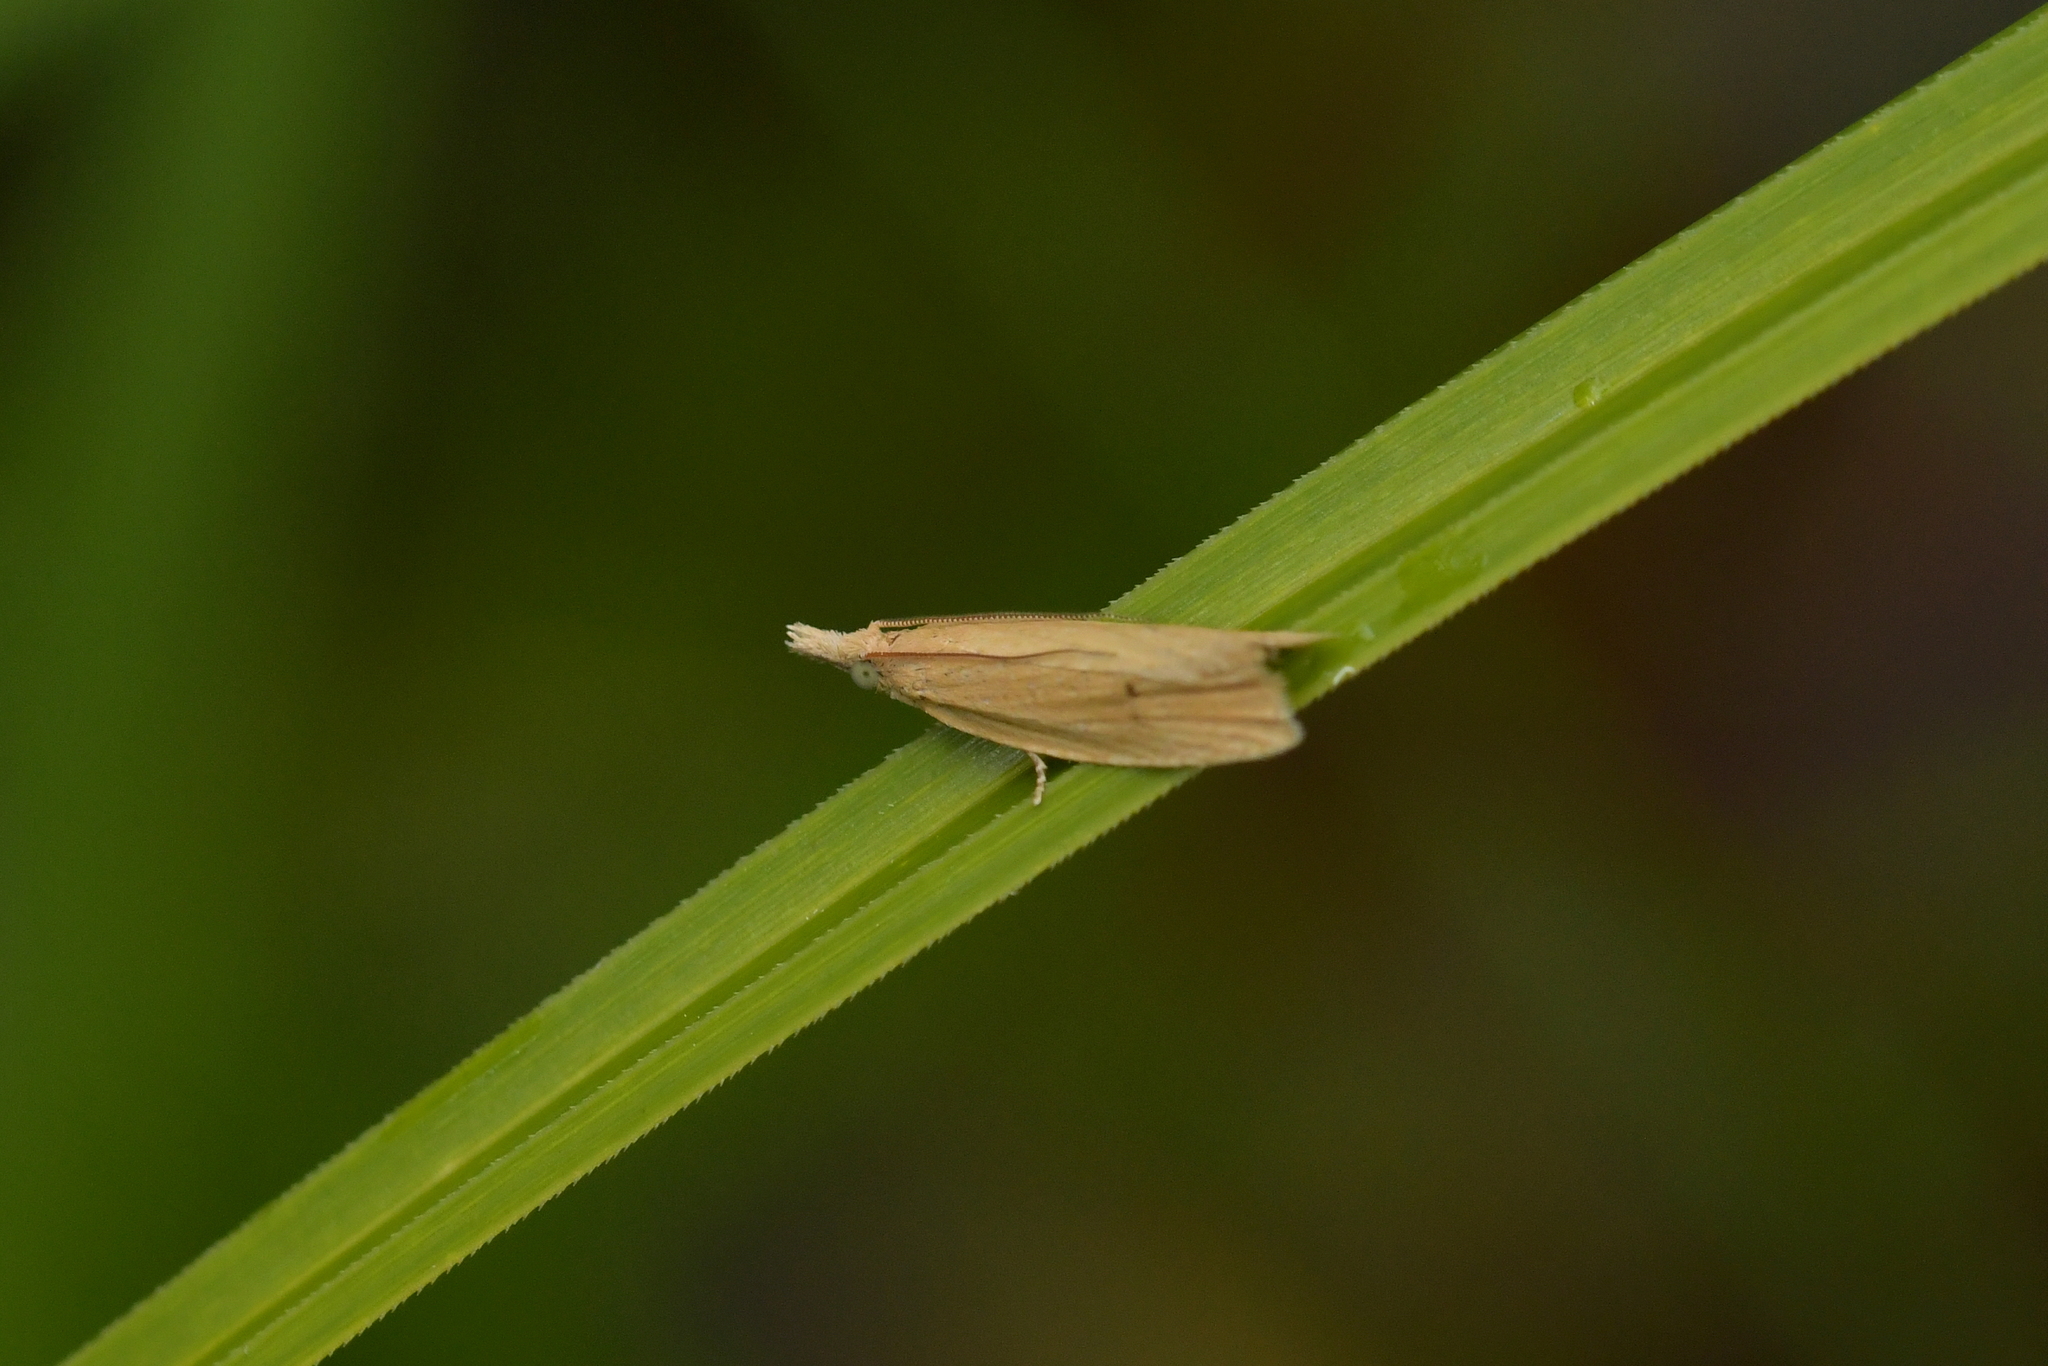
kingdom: Animalia
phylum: Arthropoda
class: Insecta
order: Lepidoptera
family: Tortricidae
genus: Bactra
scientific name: Bactra noteraula
